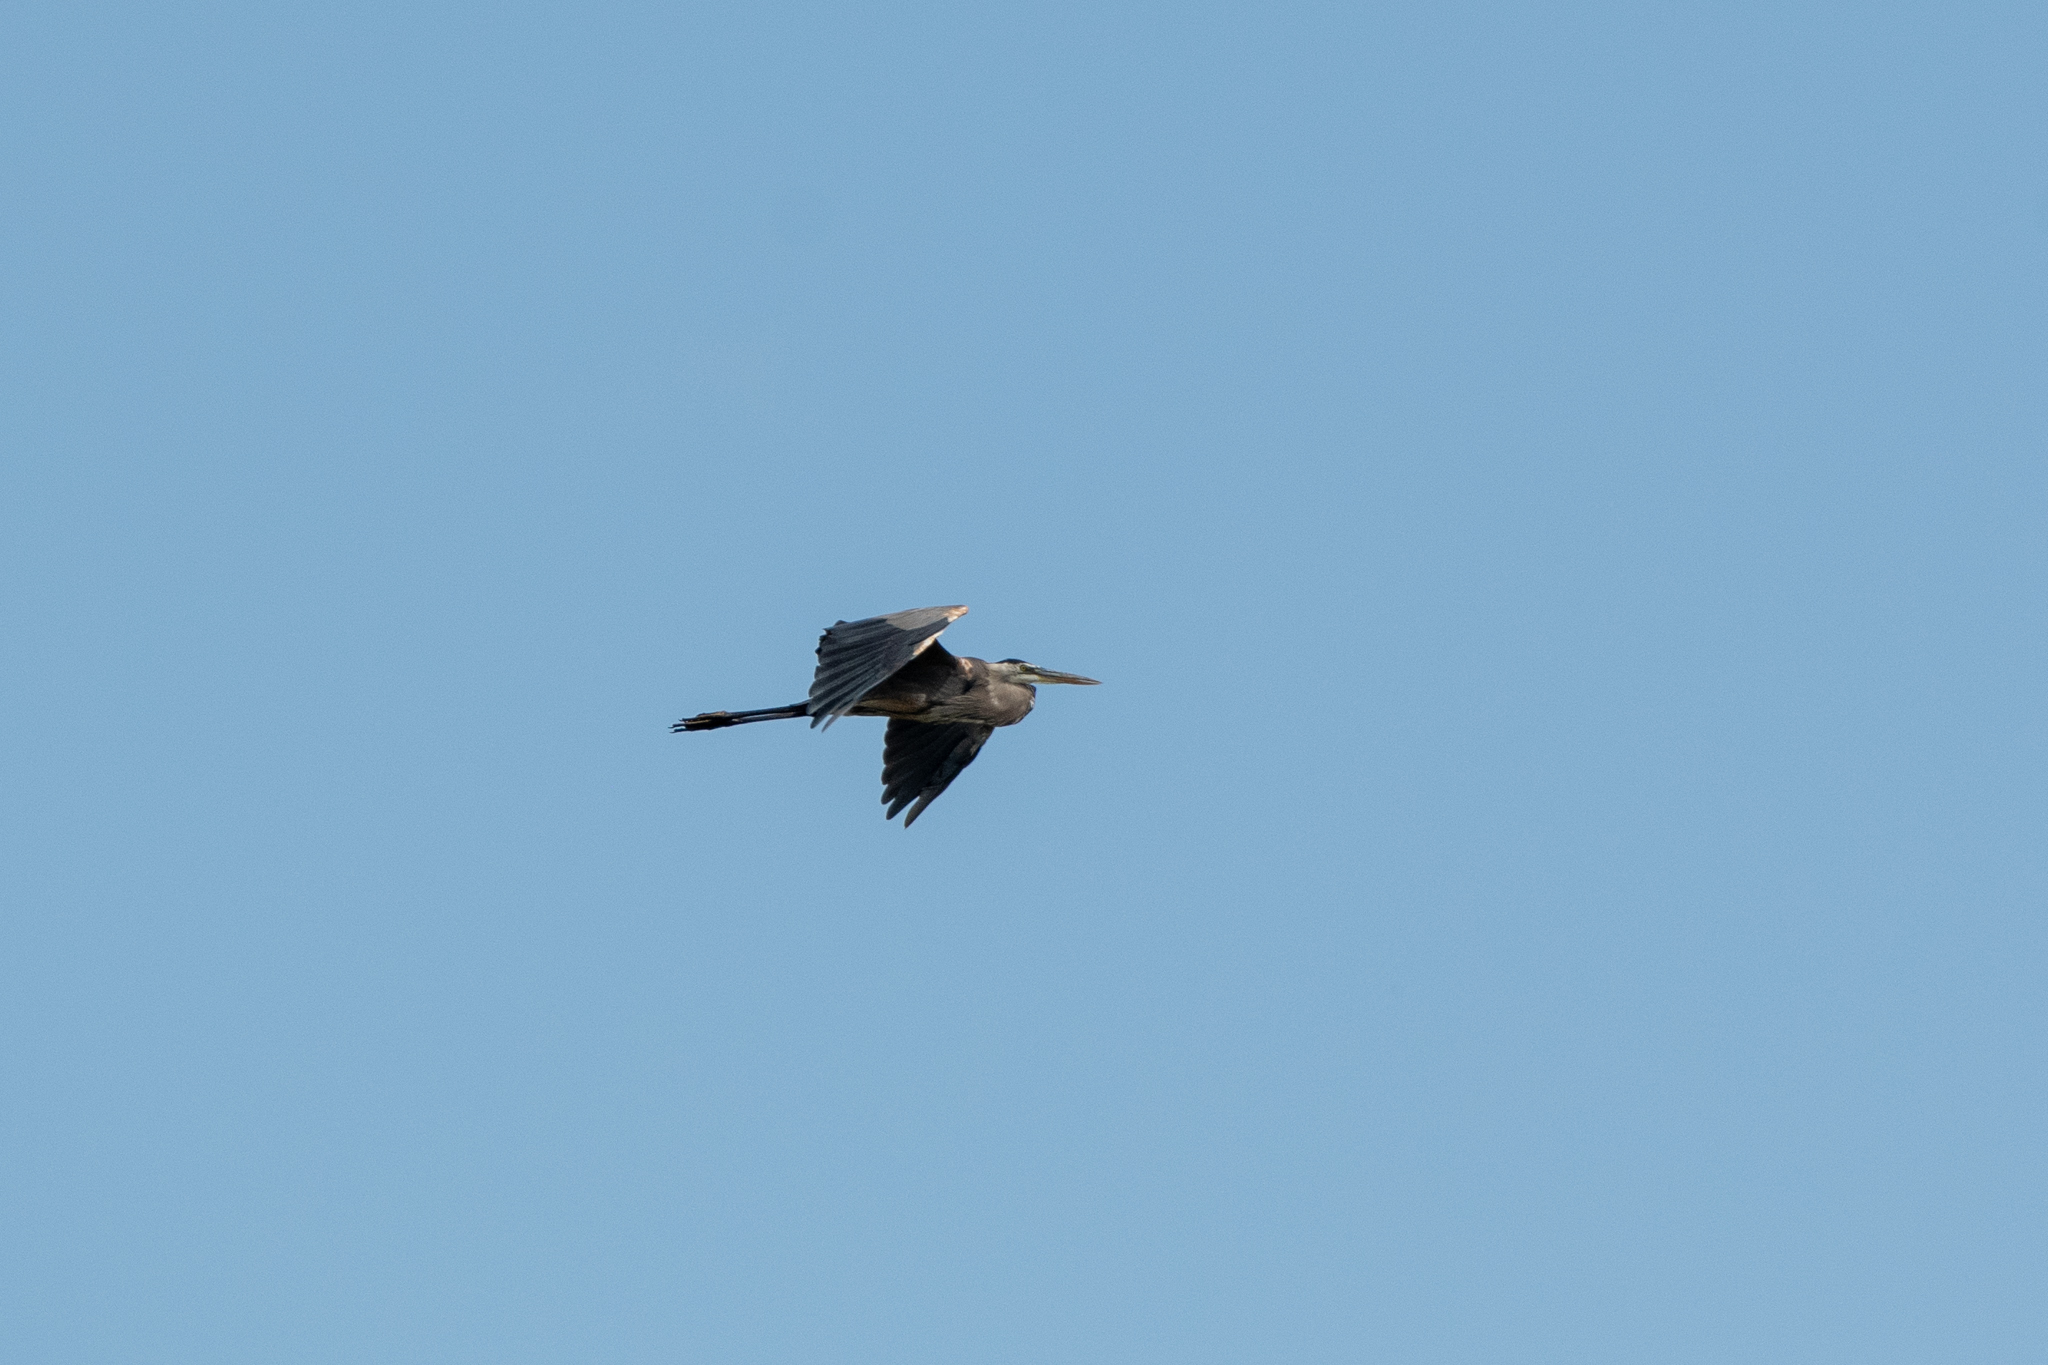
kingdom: Animalia
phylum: Chordata
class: Aves
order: Pelecaniformes
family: Ardeidae
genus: Ardea
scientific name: Ardea herodias
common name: Great blue heron
